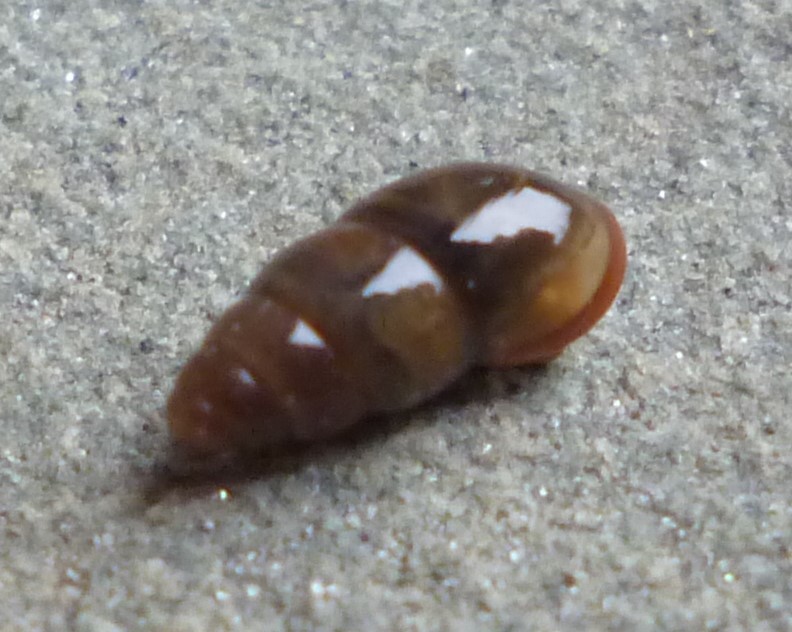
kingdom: Animalia
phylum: Mollusca
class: Gastropoda
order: Stylommatophora
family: Cochlicopidae
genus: Cochlicopa
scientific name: Cochlicopa lubrica
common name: Glossy pillar snail
